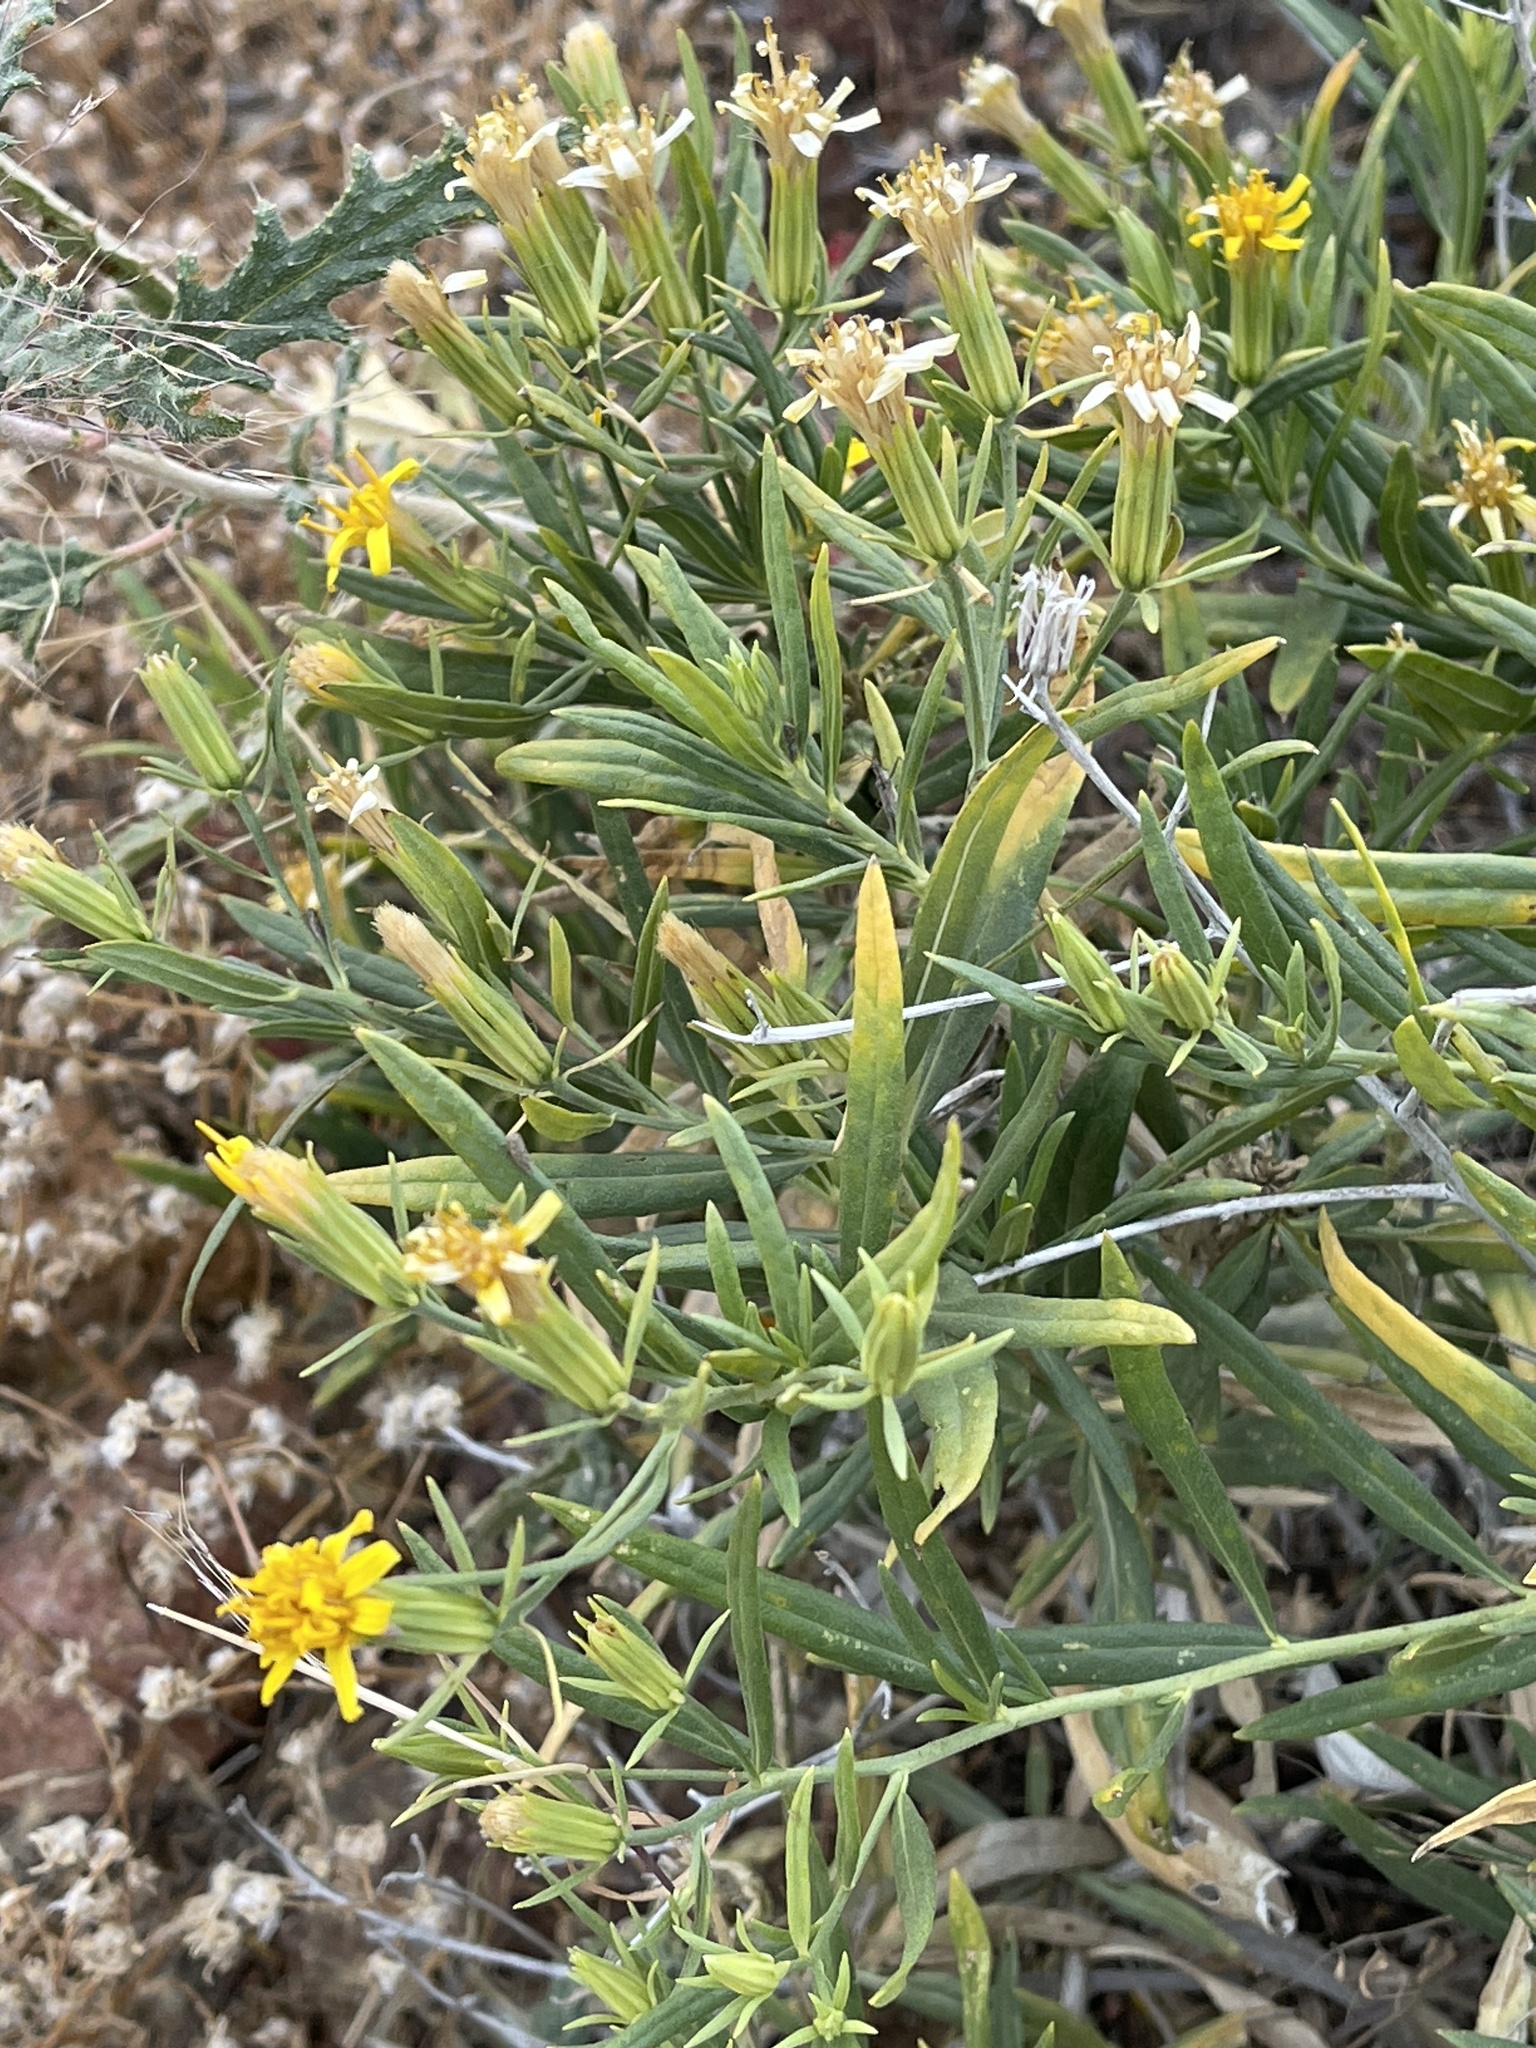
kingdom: Plantae
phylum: Tracheophyta
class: Magnoliopsida
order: Asterales
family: Asteraceae
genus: Trixis
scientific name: Trixis californica
